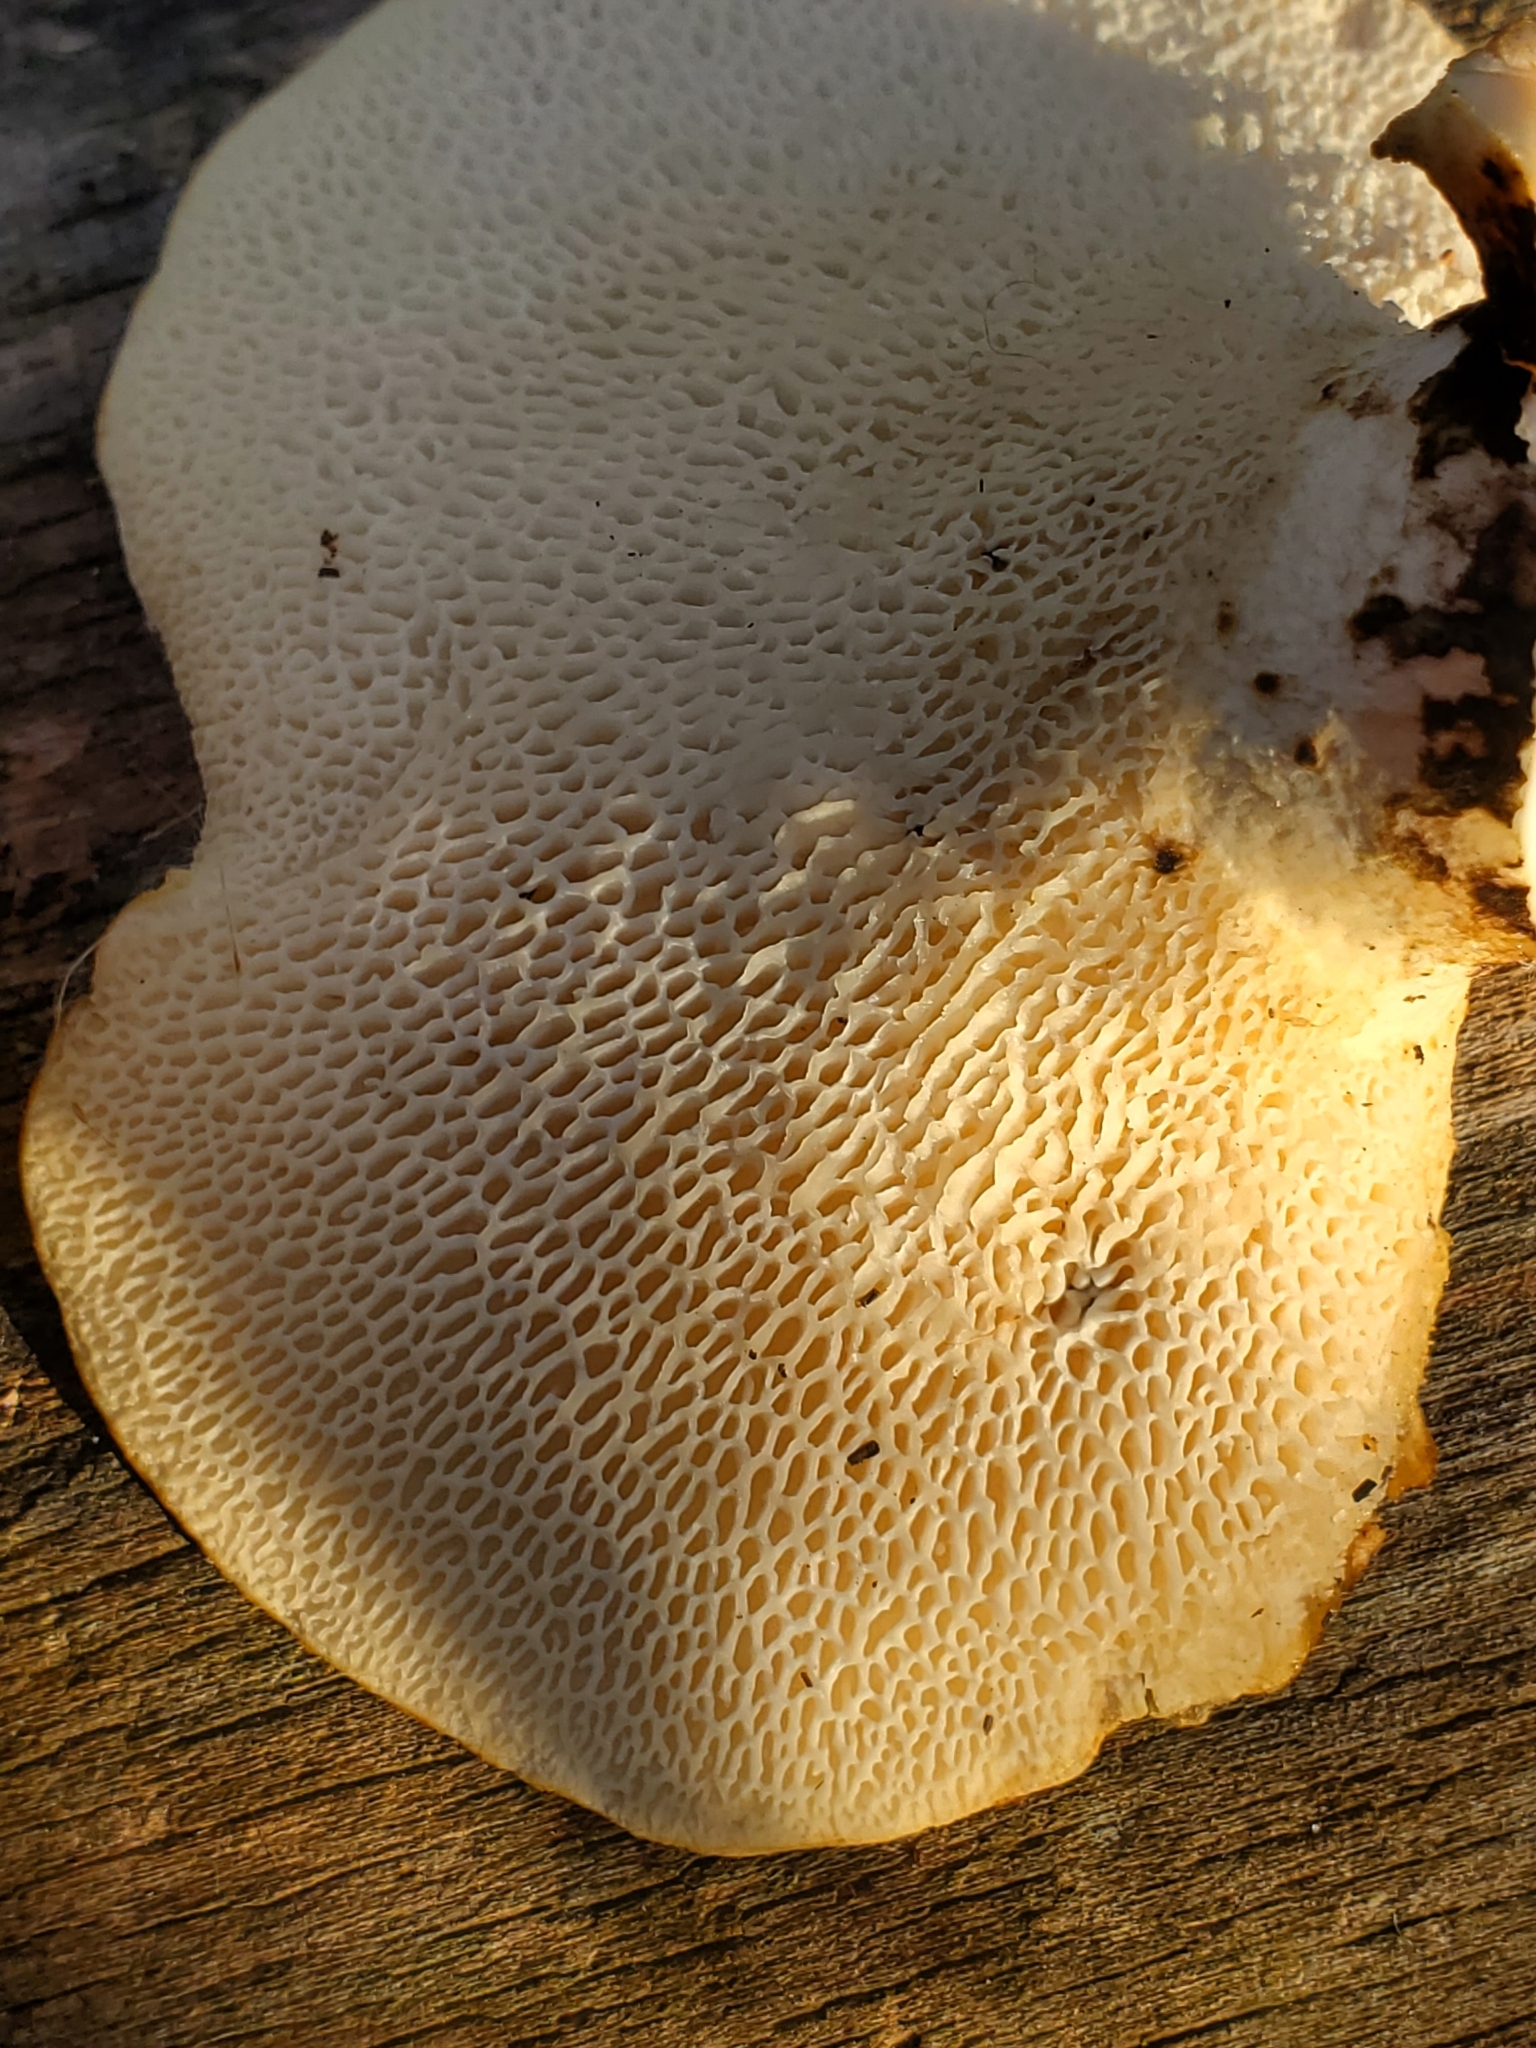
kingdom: Fungi
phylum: Basidiomycota
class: Agaricomycetes
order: Polyporales
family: Polyporaceae
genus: Cerioporus
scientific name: Cerioporus squamosus
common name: Dryad's saddle
